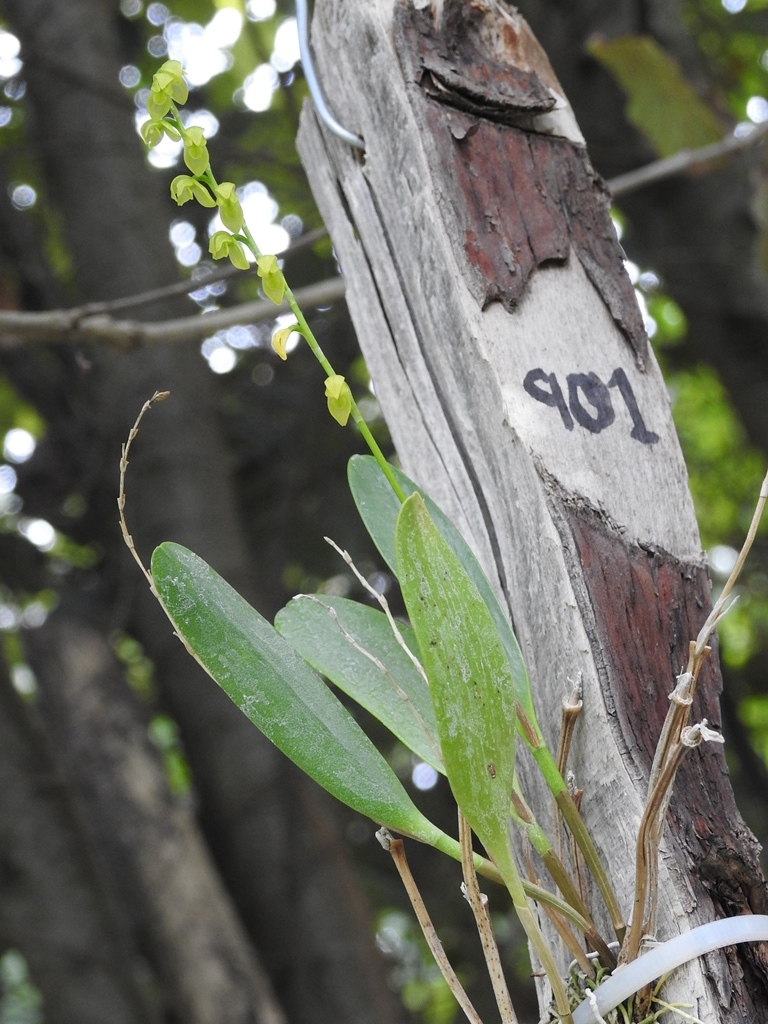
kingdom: Plantae
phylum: Tracheophyta
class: Liliopsida
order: Asparagales
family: Orchidaceae
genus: Pleurothallis
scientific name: Pleurothallis quadrifida
